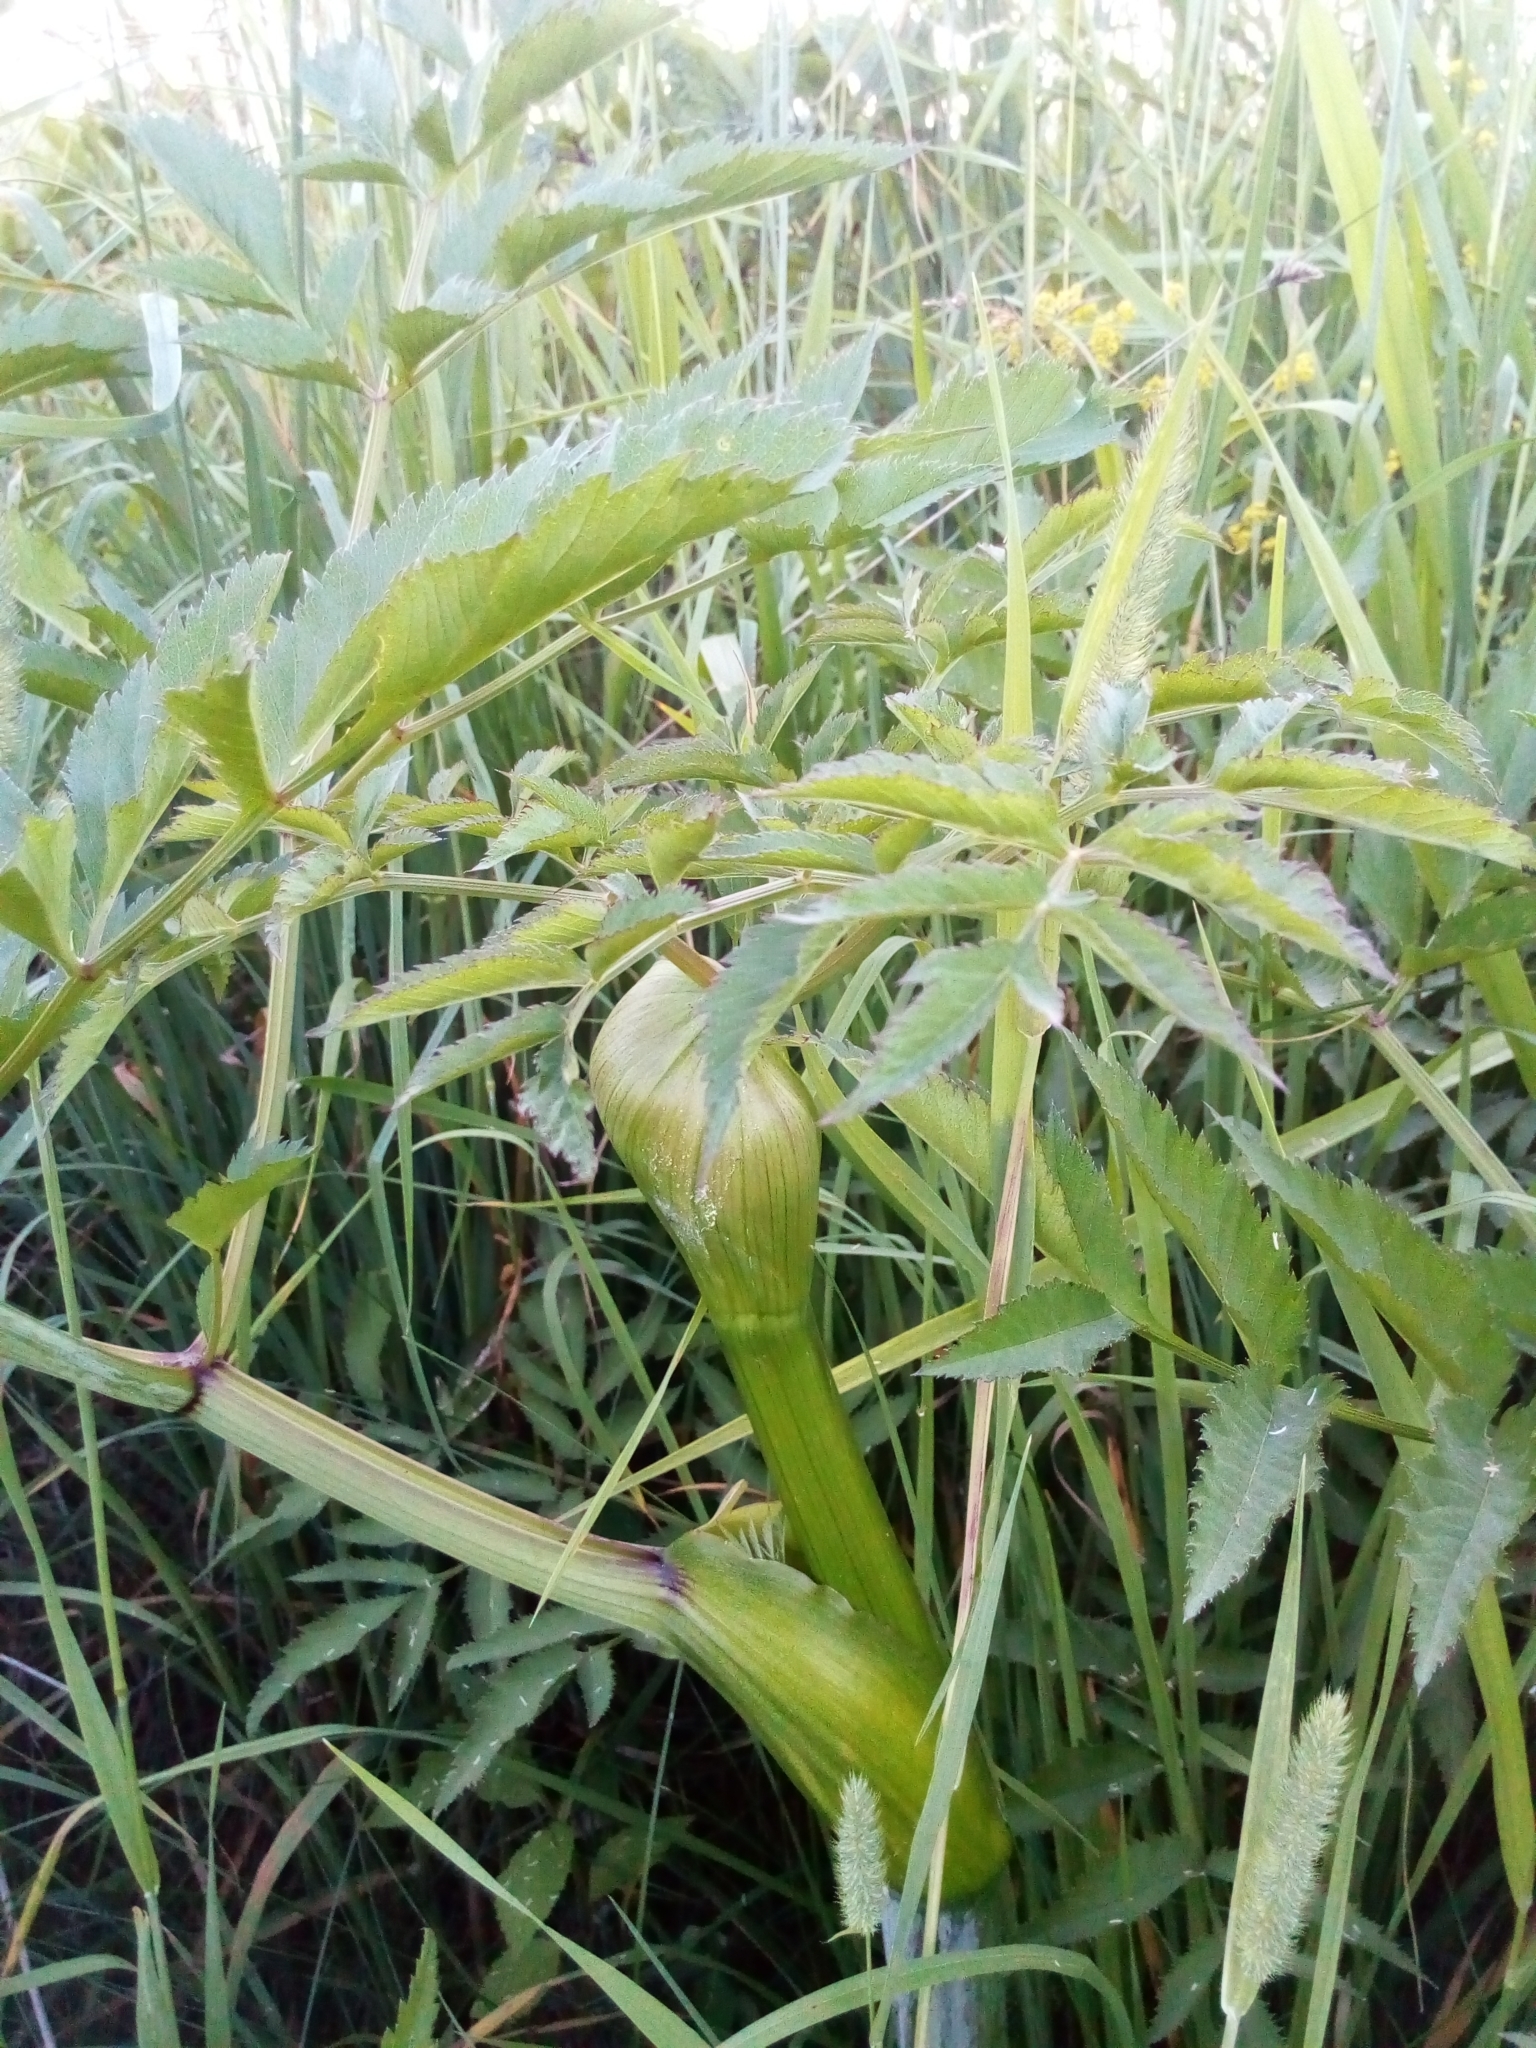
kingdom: Plantae
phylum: Tracheophyta
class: Magnoliopsida
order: Apiales
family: Apiaceae
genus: Angelica
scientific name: Angelica sylvestris
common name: Wild angelica
